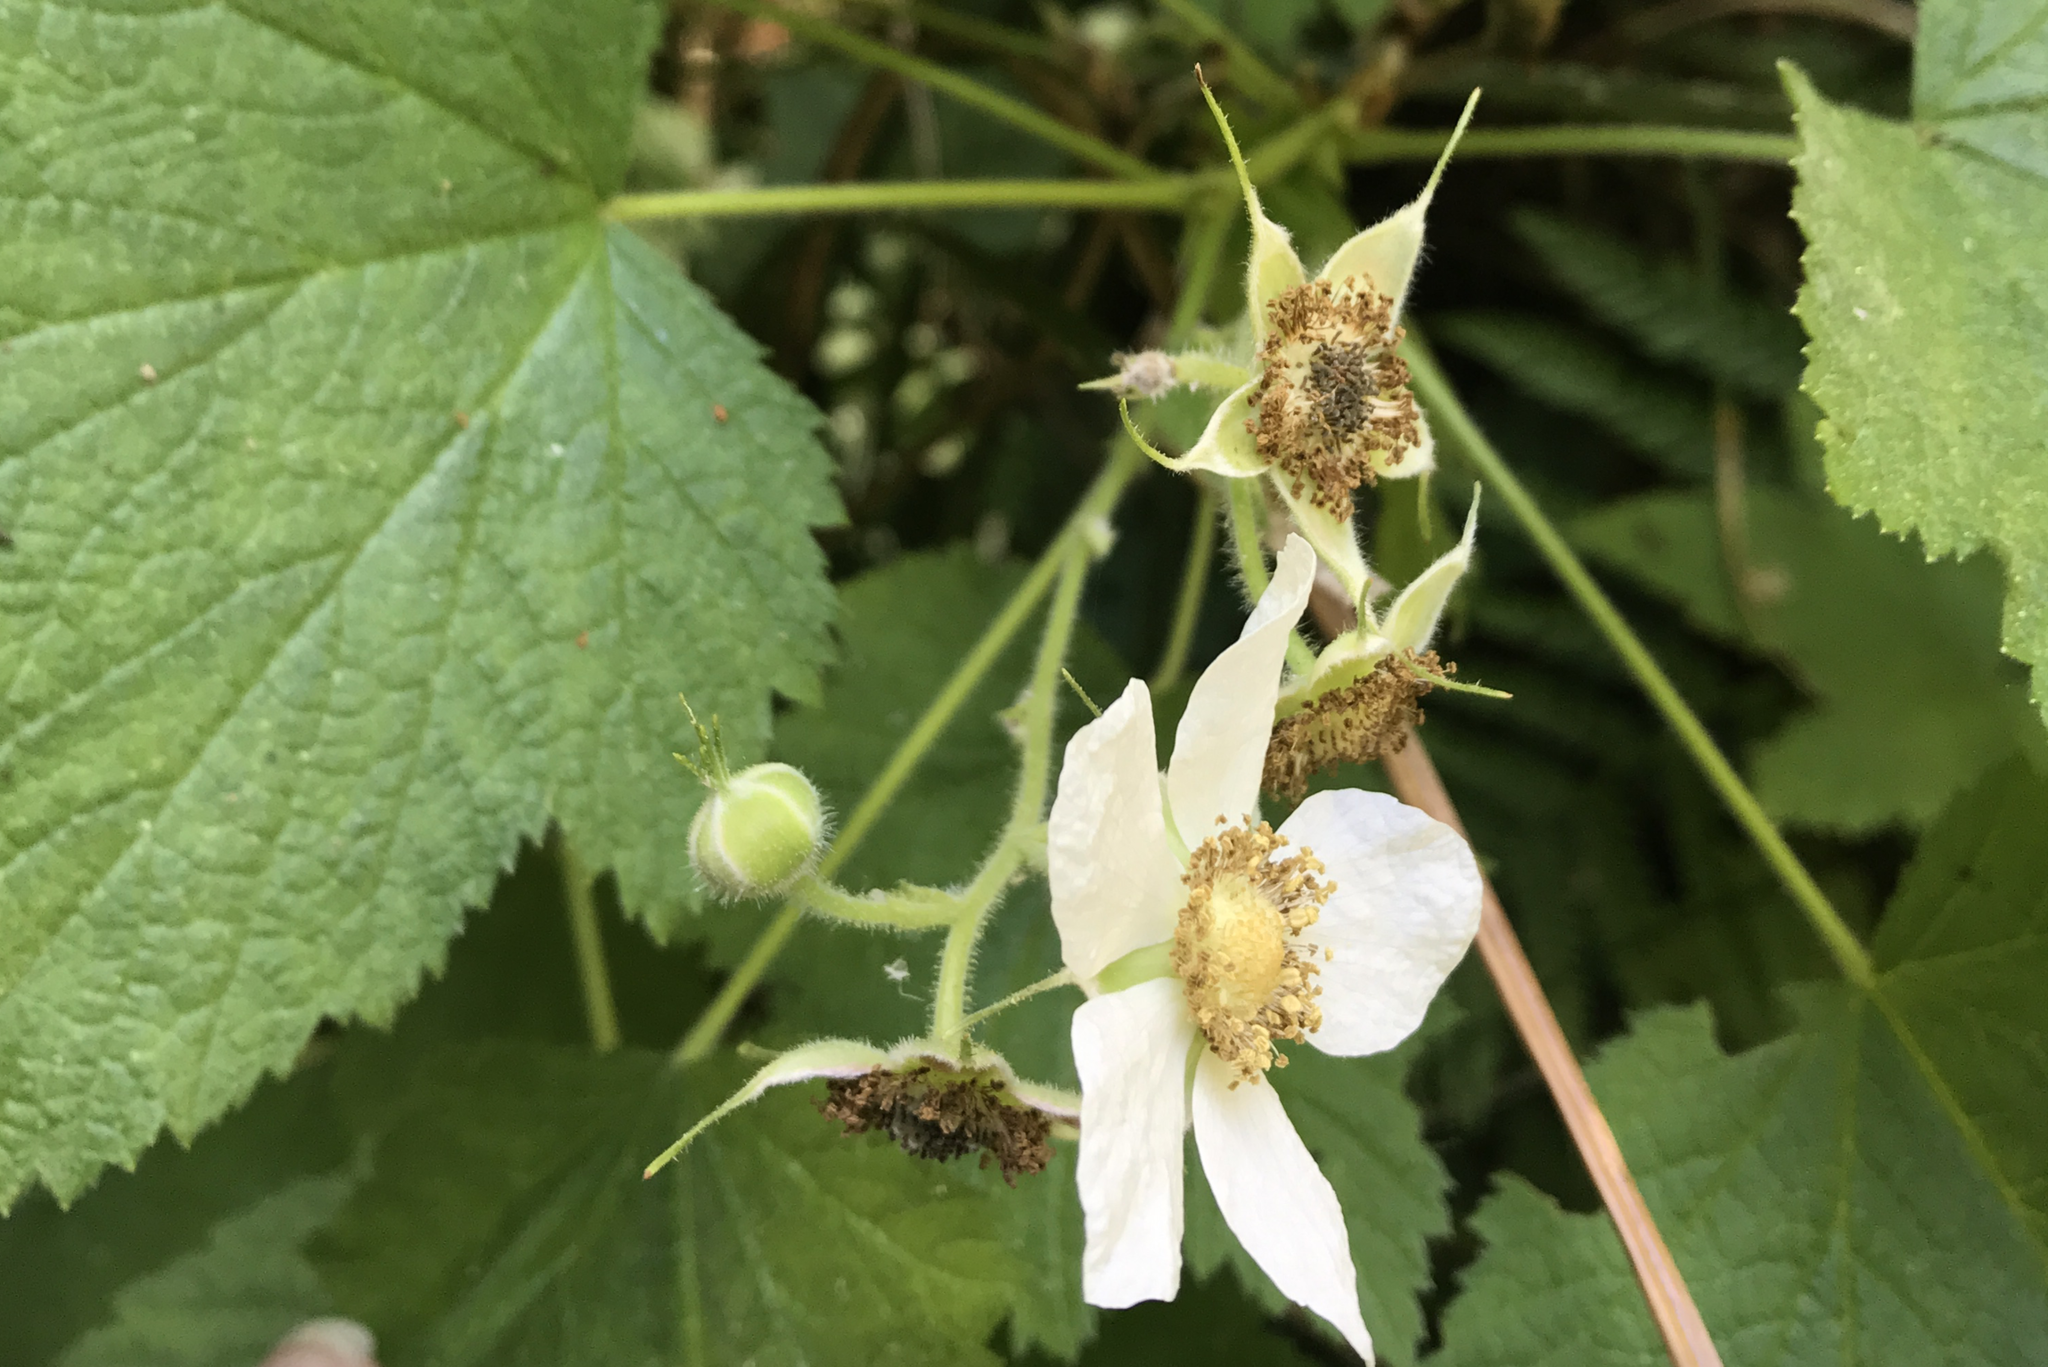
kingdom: Plantae
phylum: Tracheophyta
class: Magnoliopsida
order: Rosales
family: Rosaceae
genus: Rubus
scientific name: Rubus parviflorus
